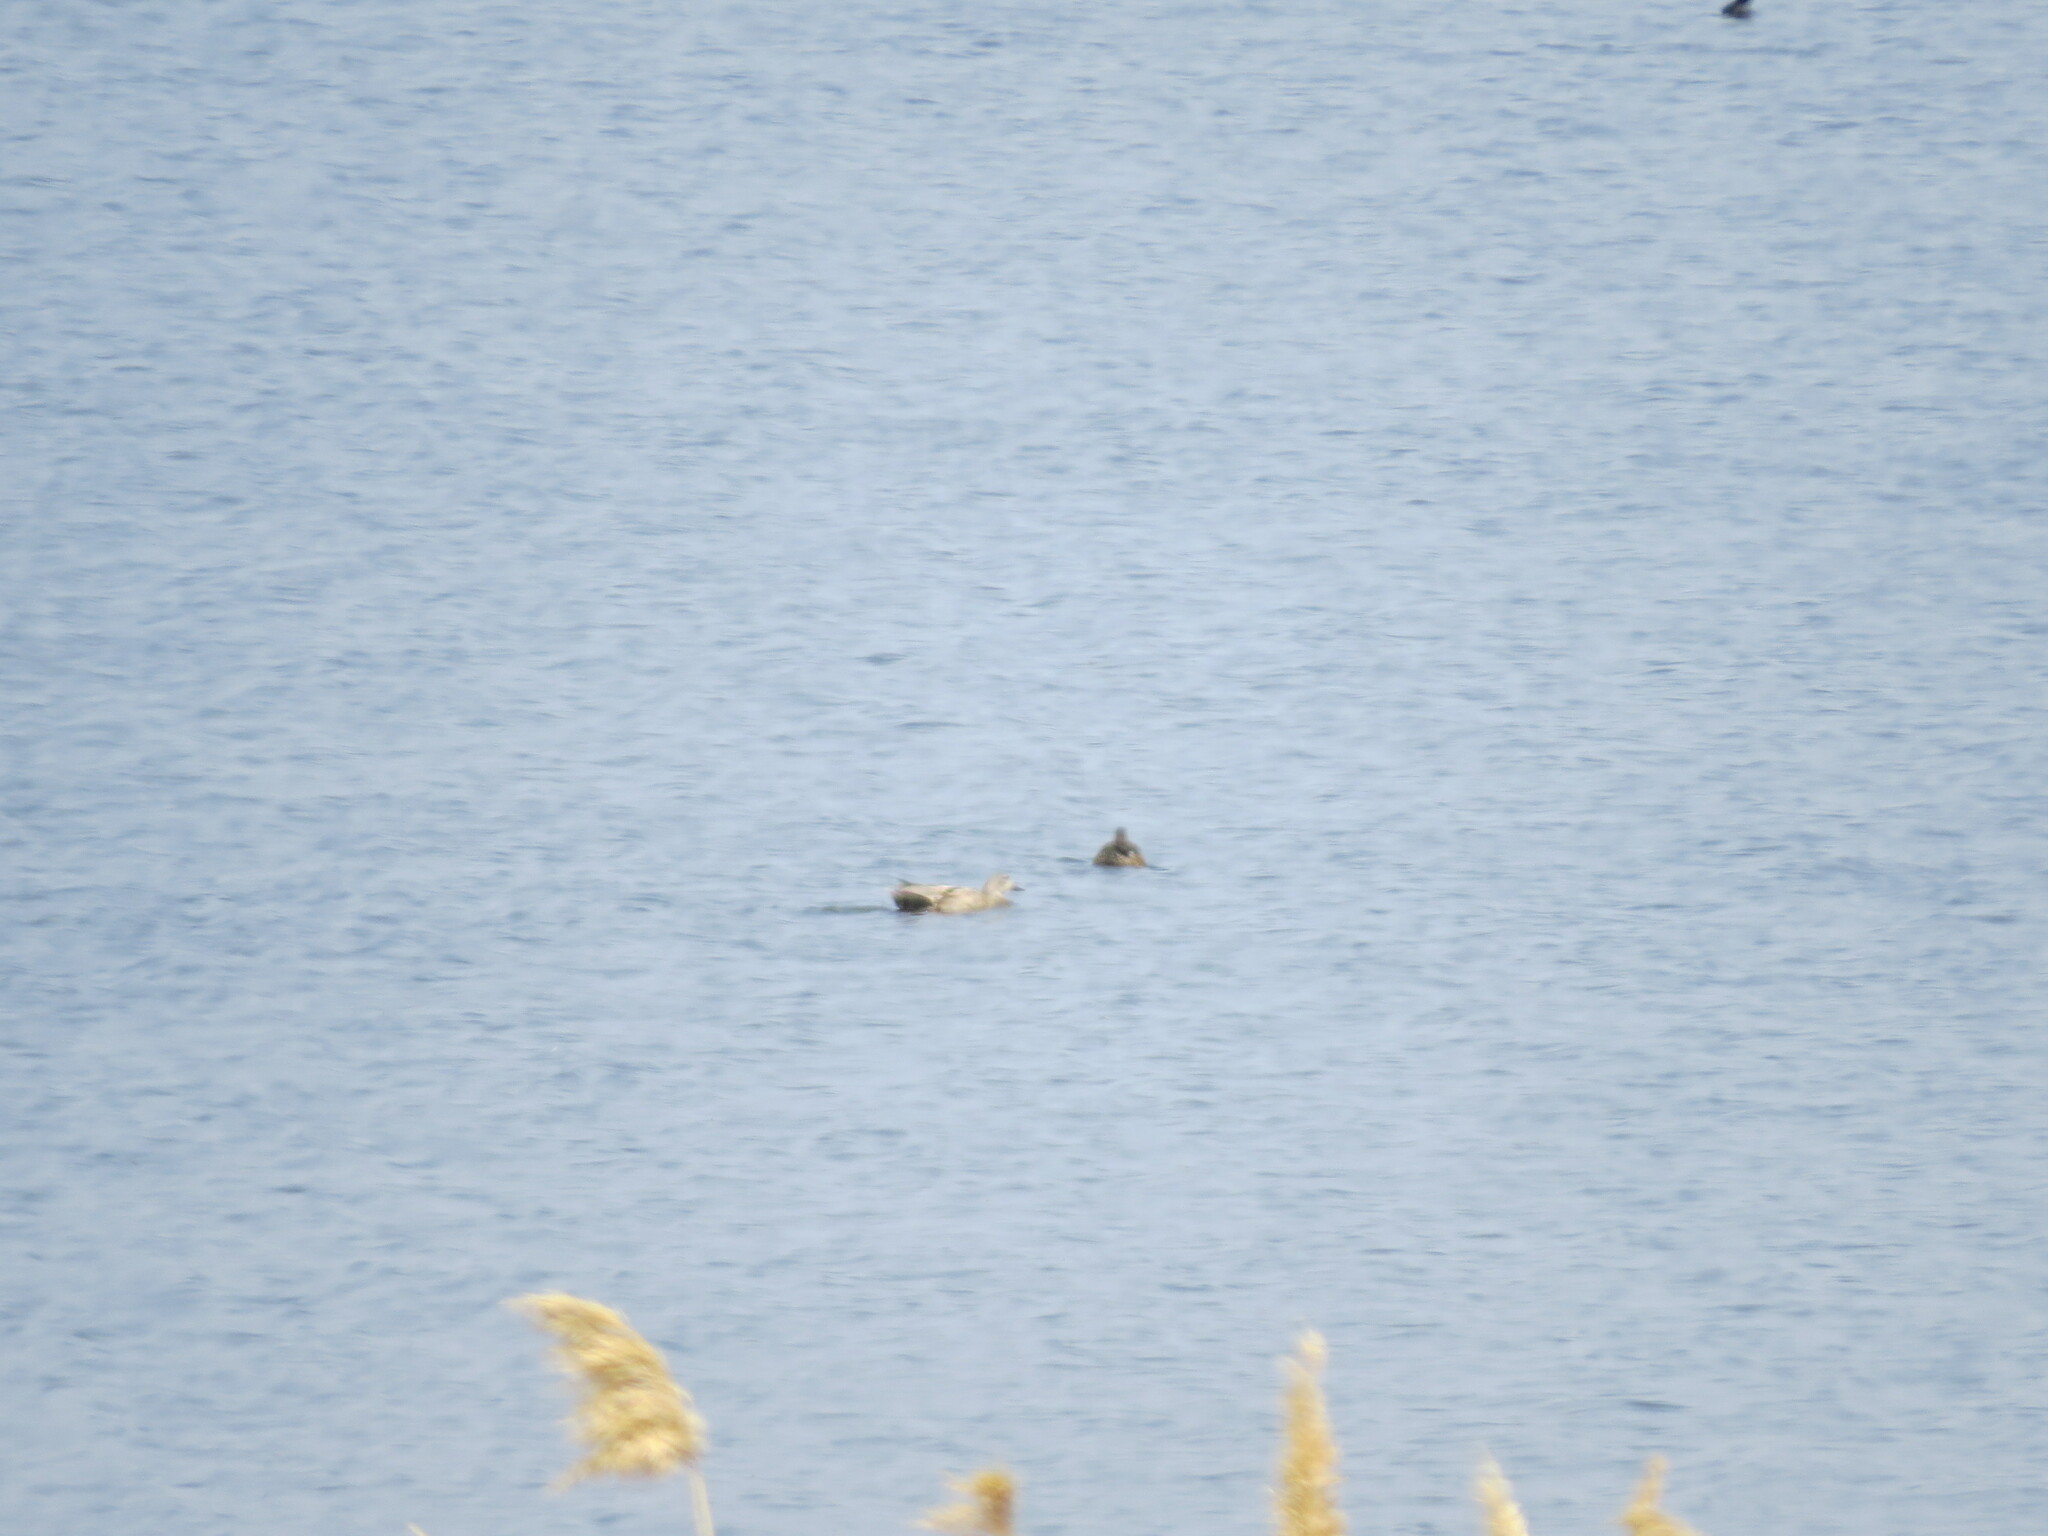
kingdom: Animalia
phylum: Chordata
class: Aves
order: Anseriformes
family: Anatidae
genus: Mareca
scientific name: Mareca strepera
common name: Gadwall
